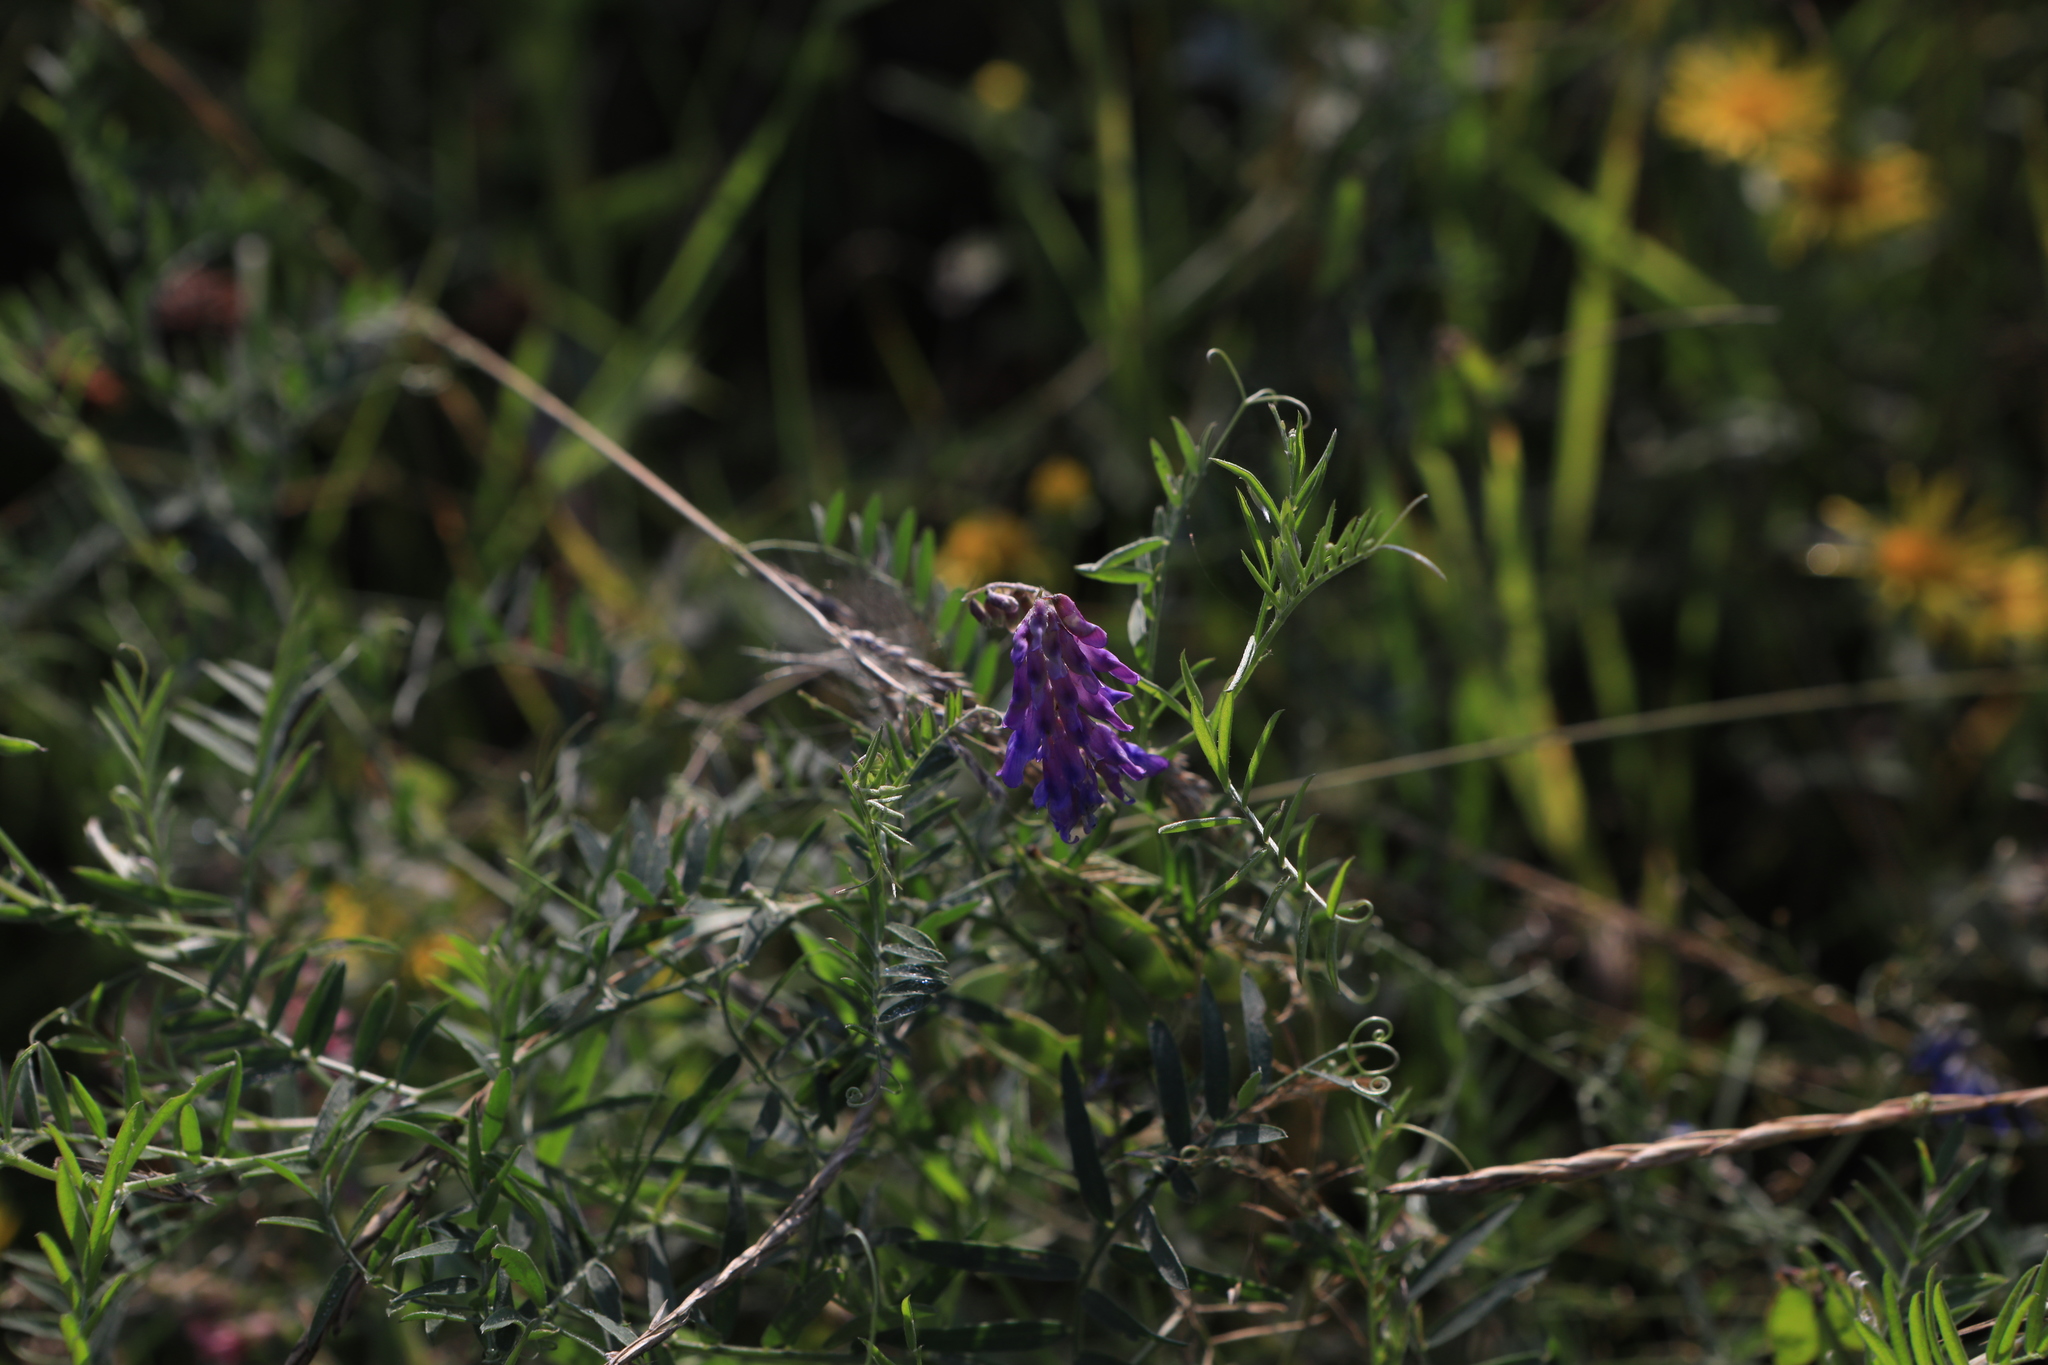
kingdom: Plantae
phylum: Tracheophyta
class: Magnoliopsida
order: Fabales
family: Fabaceae
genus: Vicia
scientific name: Vicia cracca
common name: Bird vetch
